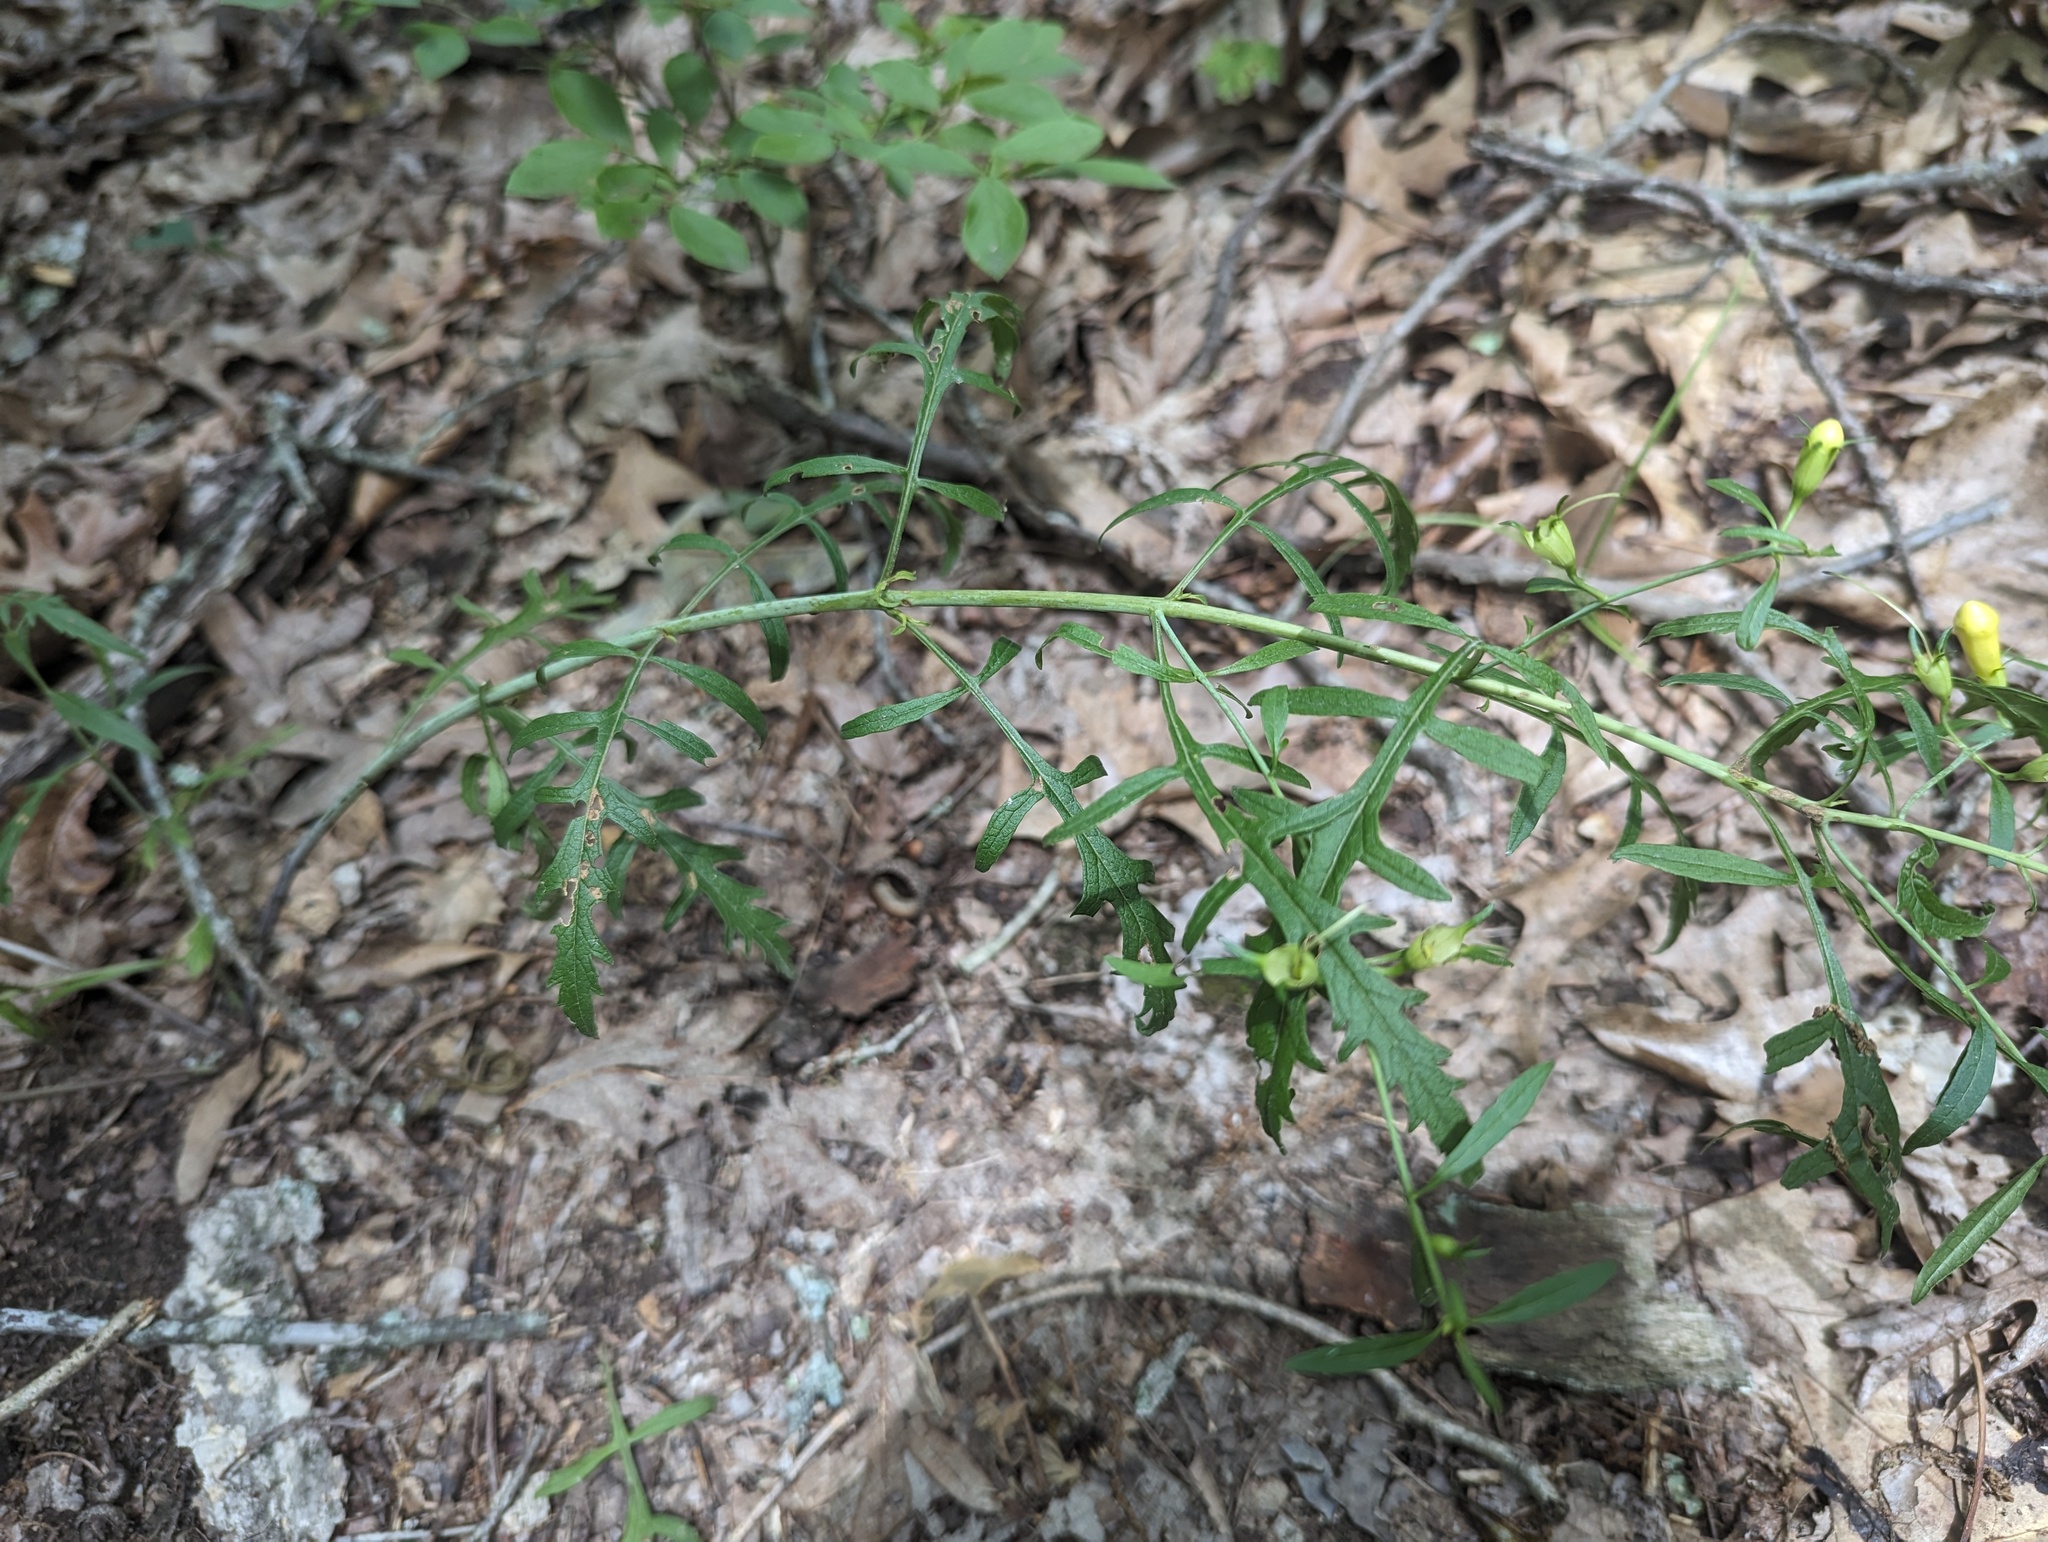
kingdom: Plantae
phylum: Tracheophyta
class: Magnoliopsida
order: Lamiales
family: Orobanchaceae
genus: Aureolaria
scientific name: Aureolaria flava
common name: Smooth false foxglove
